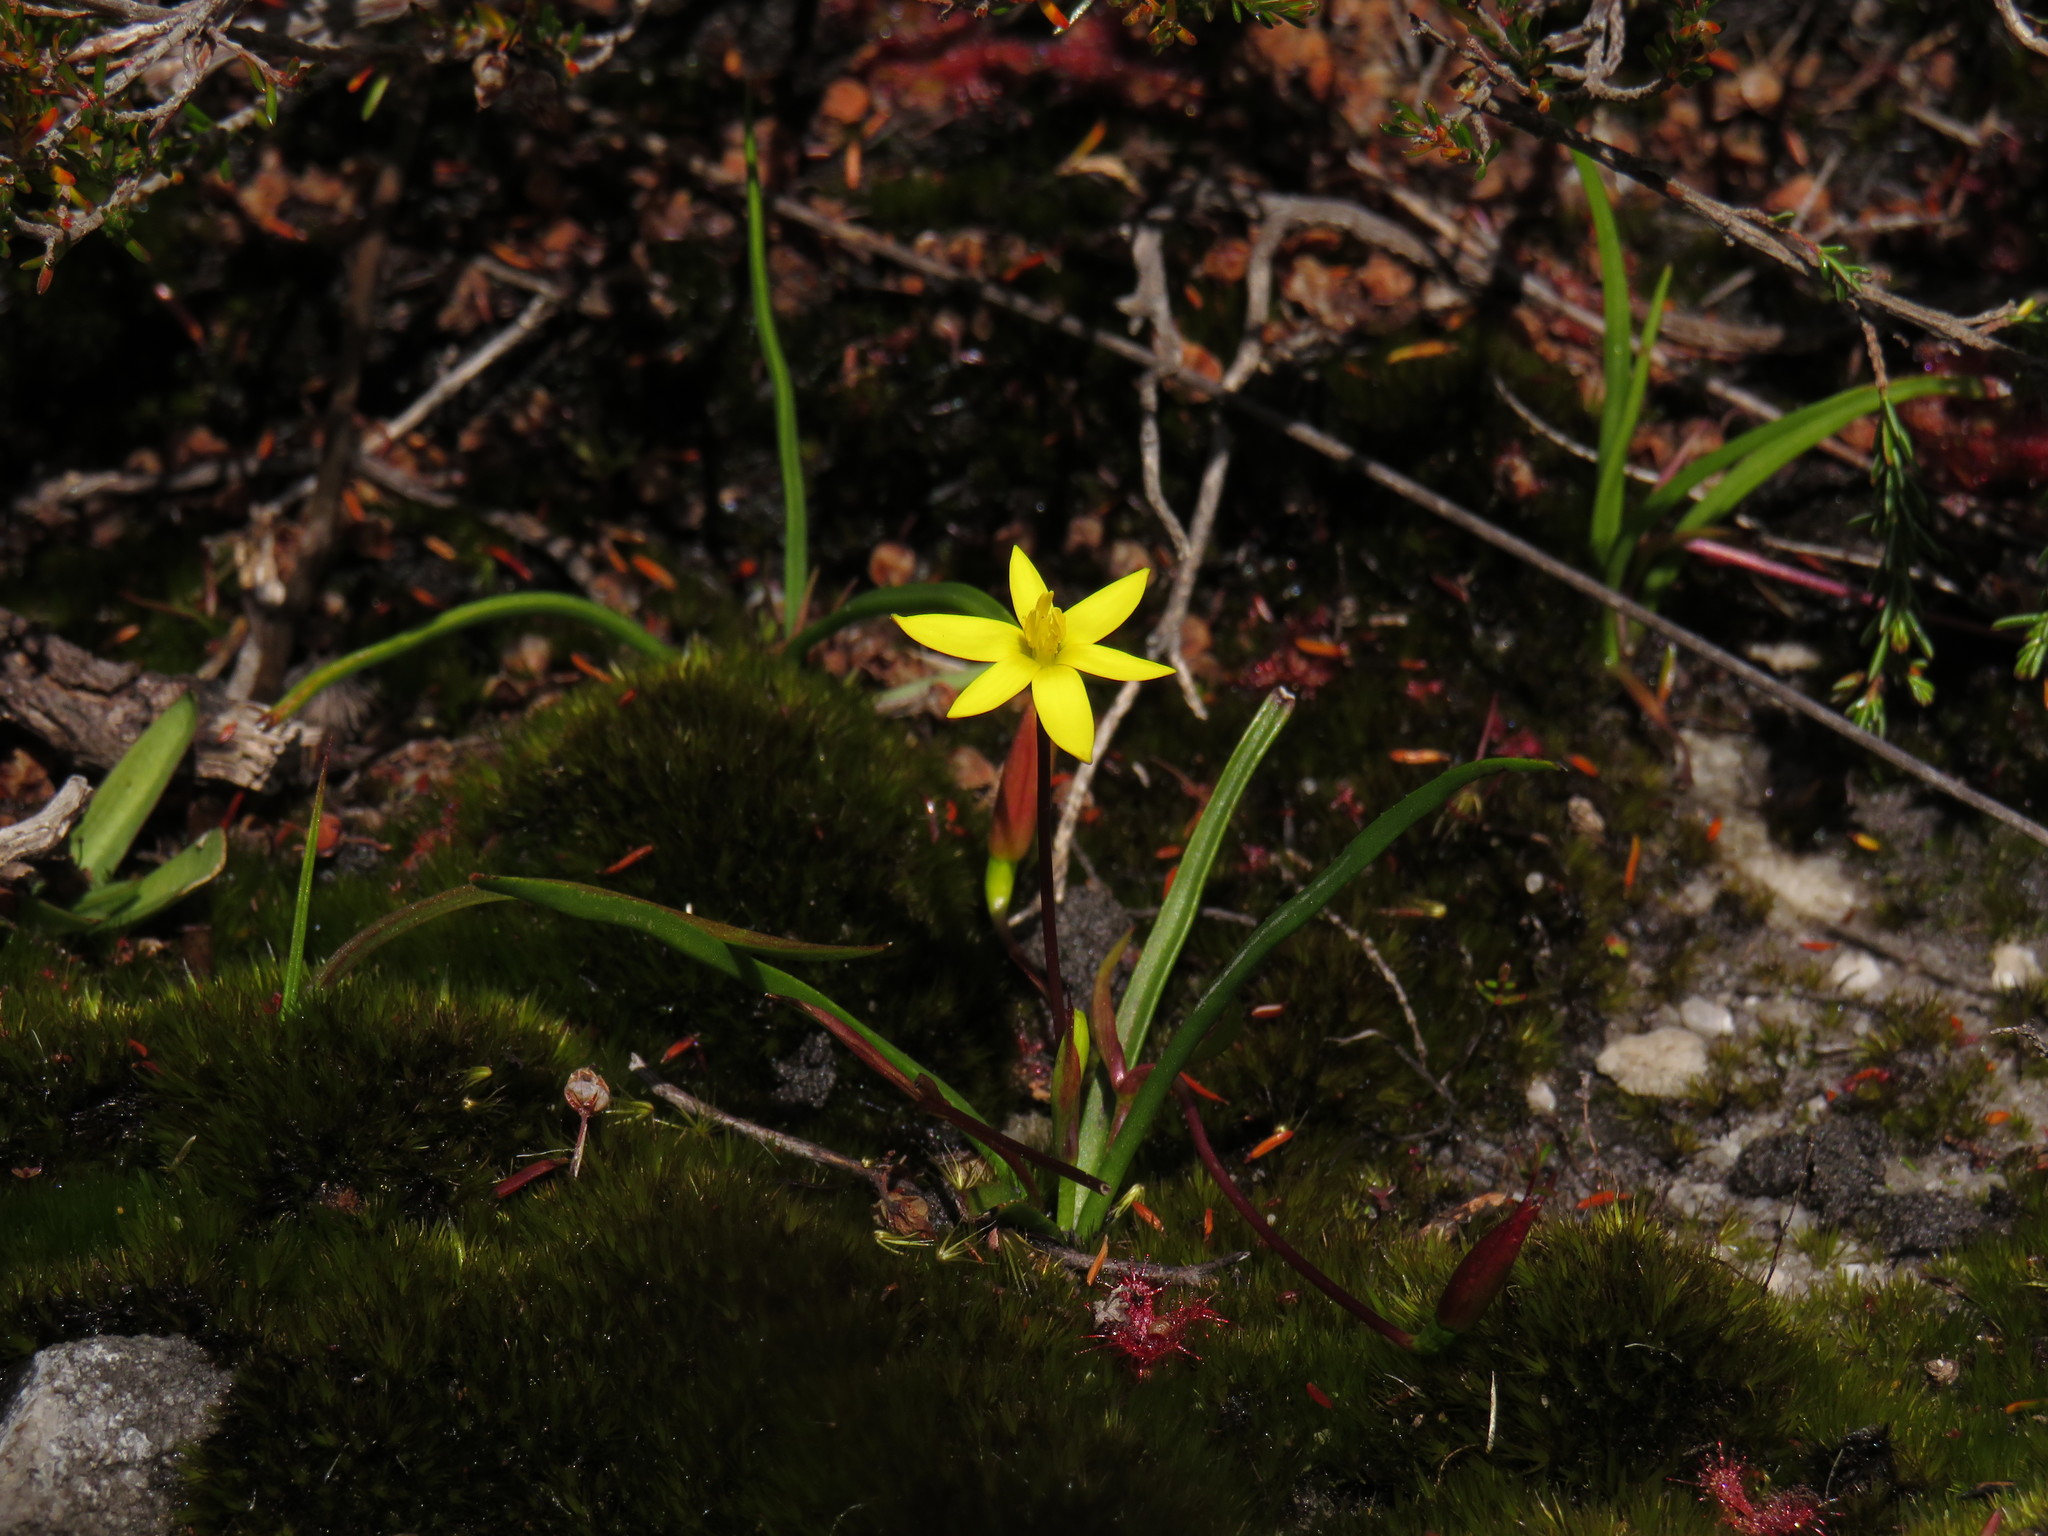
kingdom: Plantae
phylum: Tracheophyta
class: Liliopsida
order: Asparagales
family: Hypoxidaceae
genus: Pauridia
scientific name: Pauridia monticola
